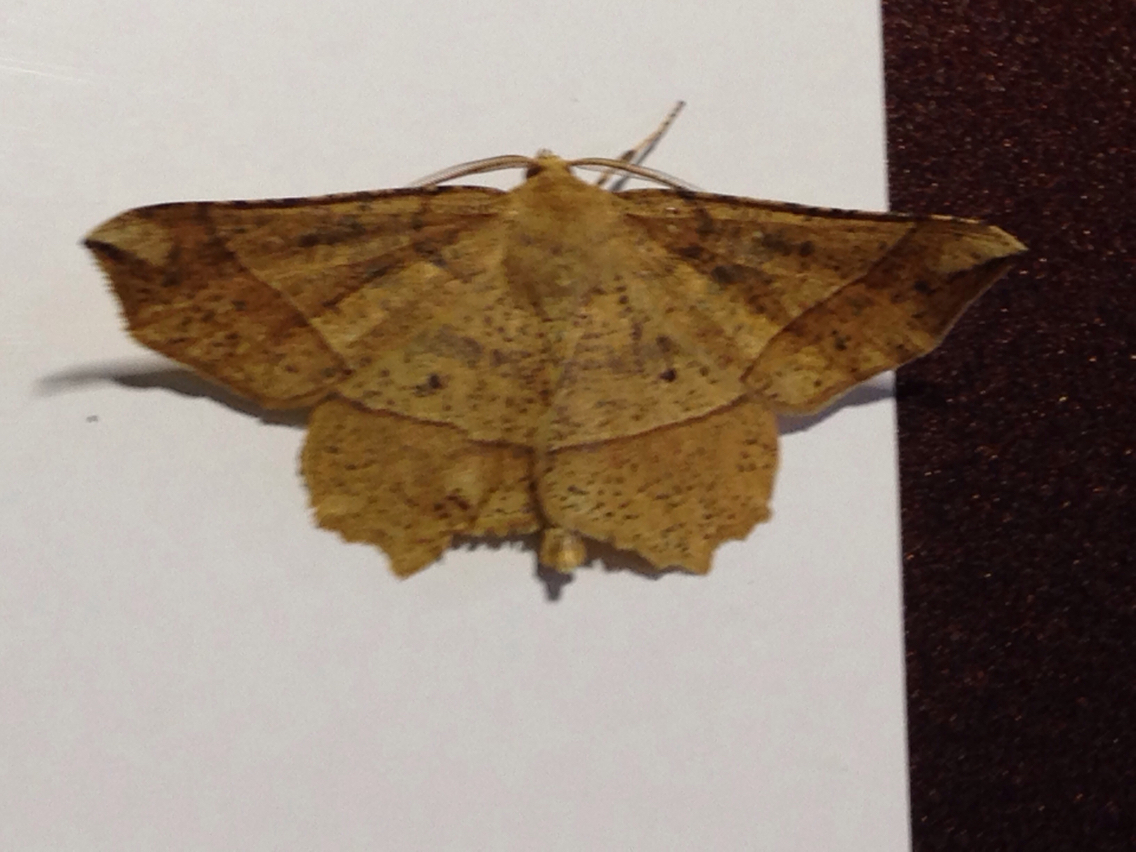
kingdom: Animalia
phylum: Arthropoda
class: Insecta
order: Lepidoptera
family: Geometridae
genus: Euchlaena
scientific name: Euchlaena tigrinaria
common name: Mottled euchlaena moth
